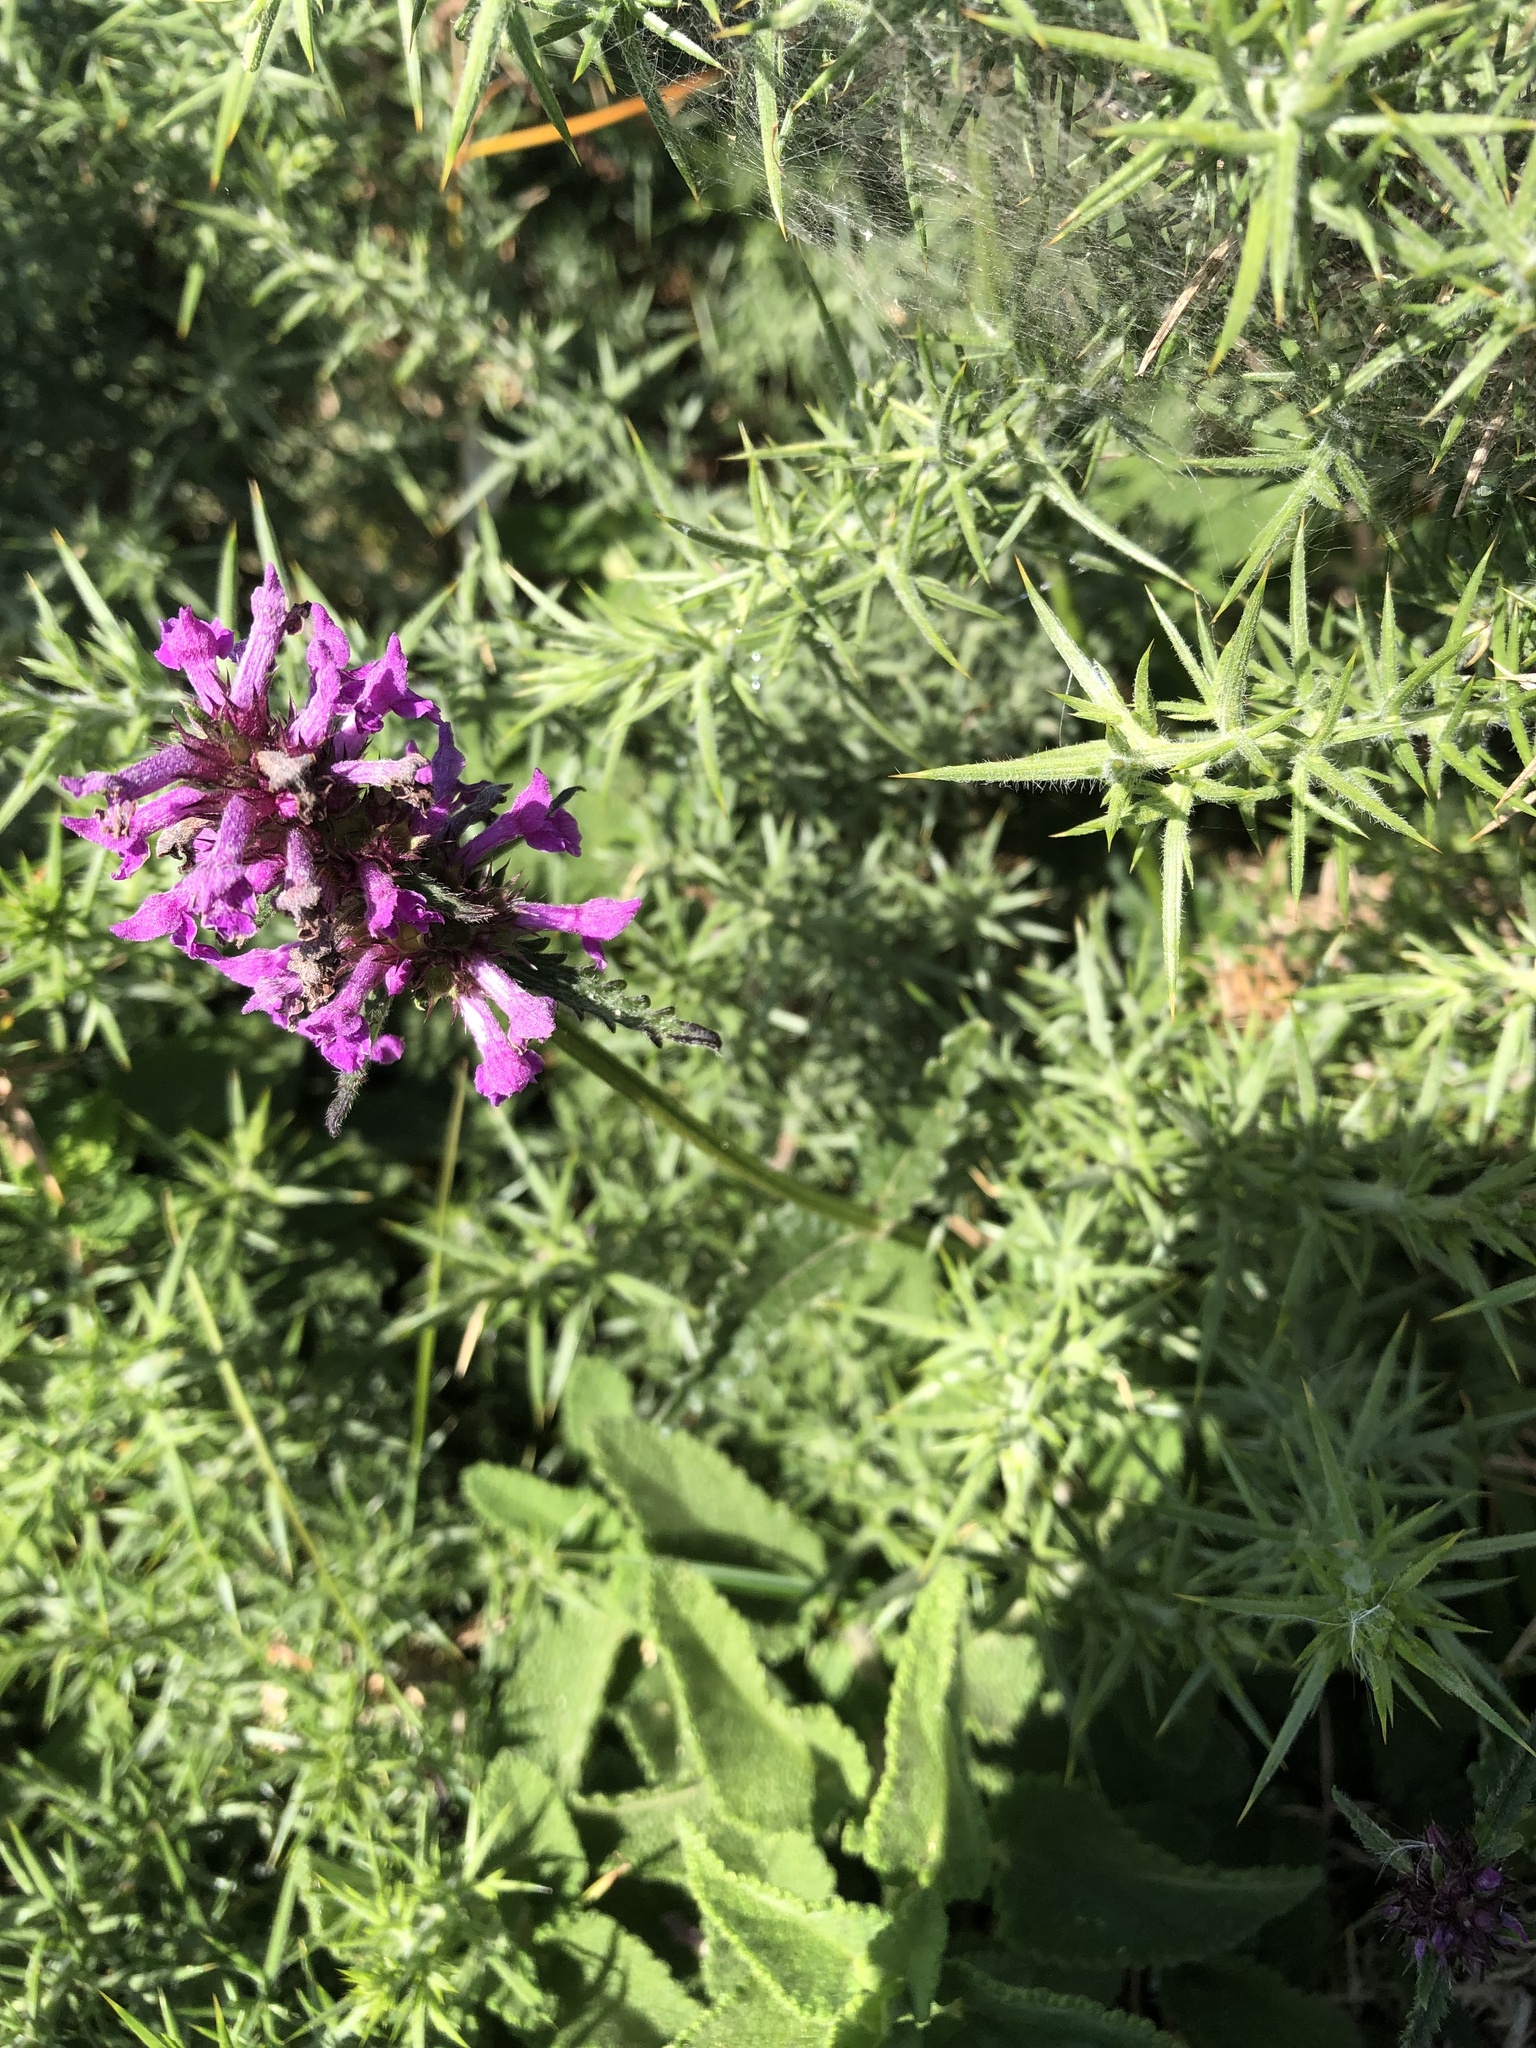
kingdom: Plantae
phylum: Tracheophyta
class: Magnoliopsida
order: Lamiales
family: Lamiaceae
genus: Betonica
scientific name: Betonica officinalis
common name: Bishop's-wort
